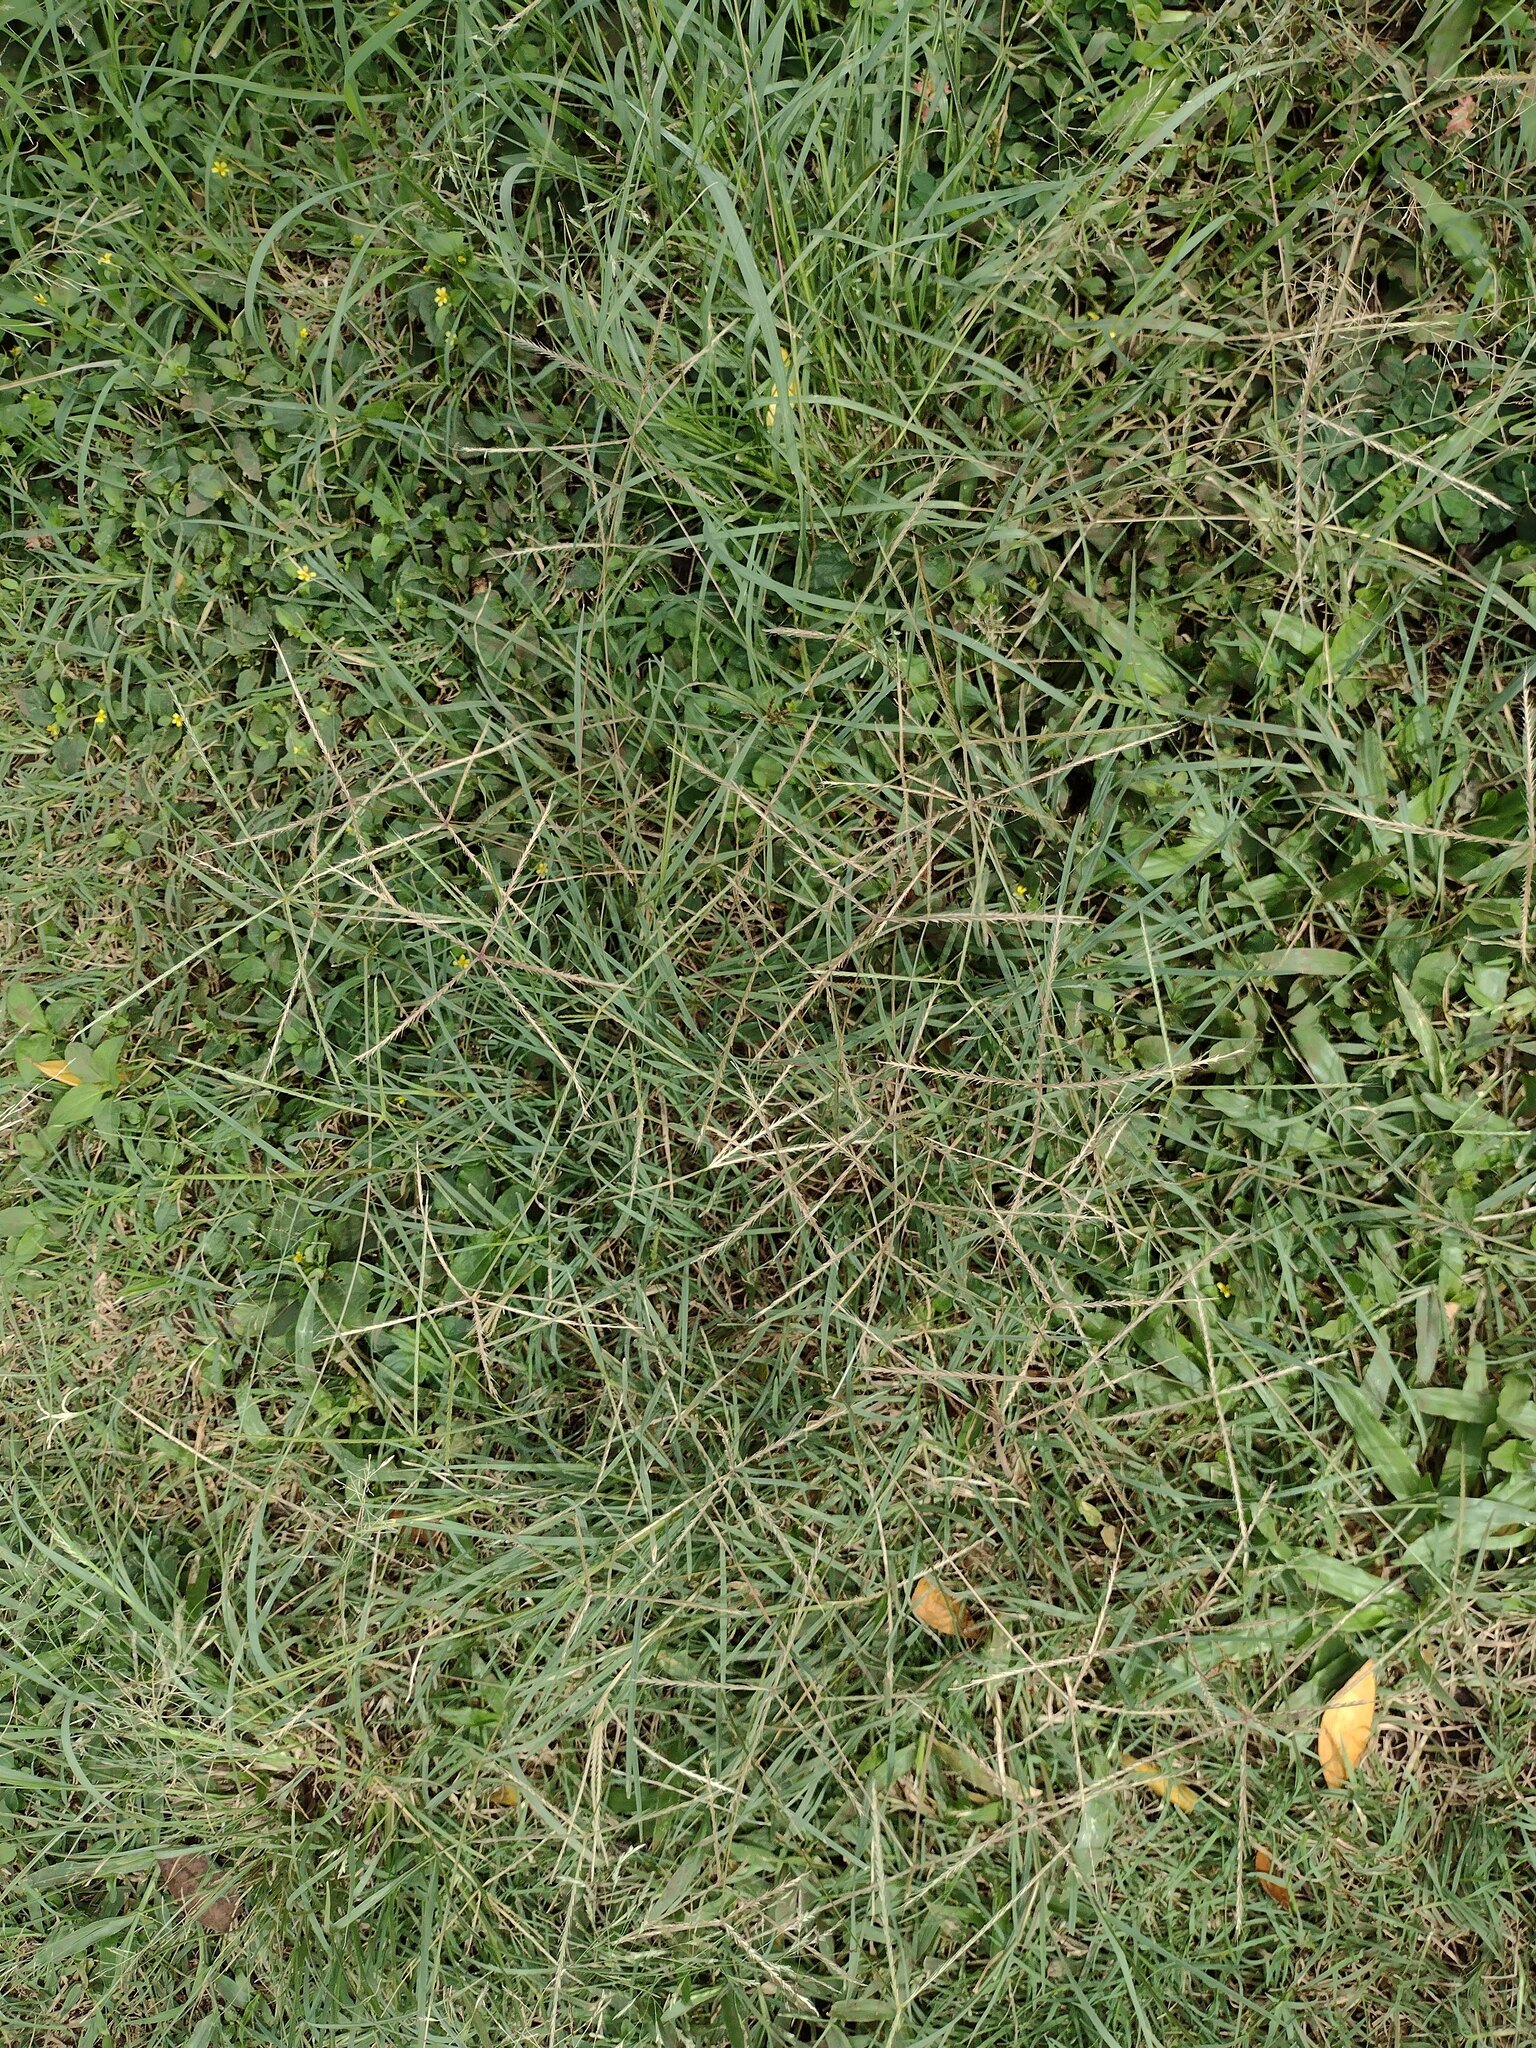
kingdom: Plantae
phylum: Tracheophyta
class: Liliopsida
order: Poales
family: Poaceae
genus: Chloris
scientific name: Chloris divaricata
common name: Spreading windmill grass
